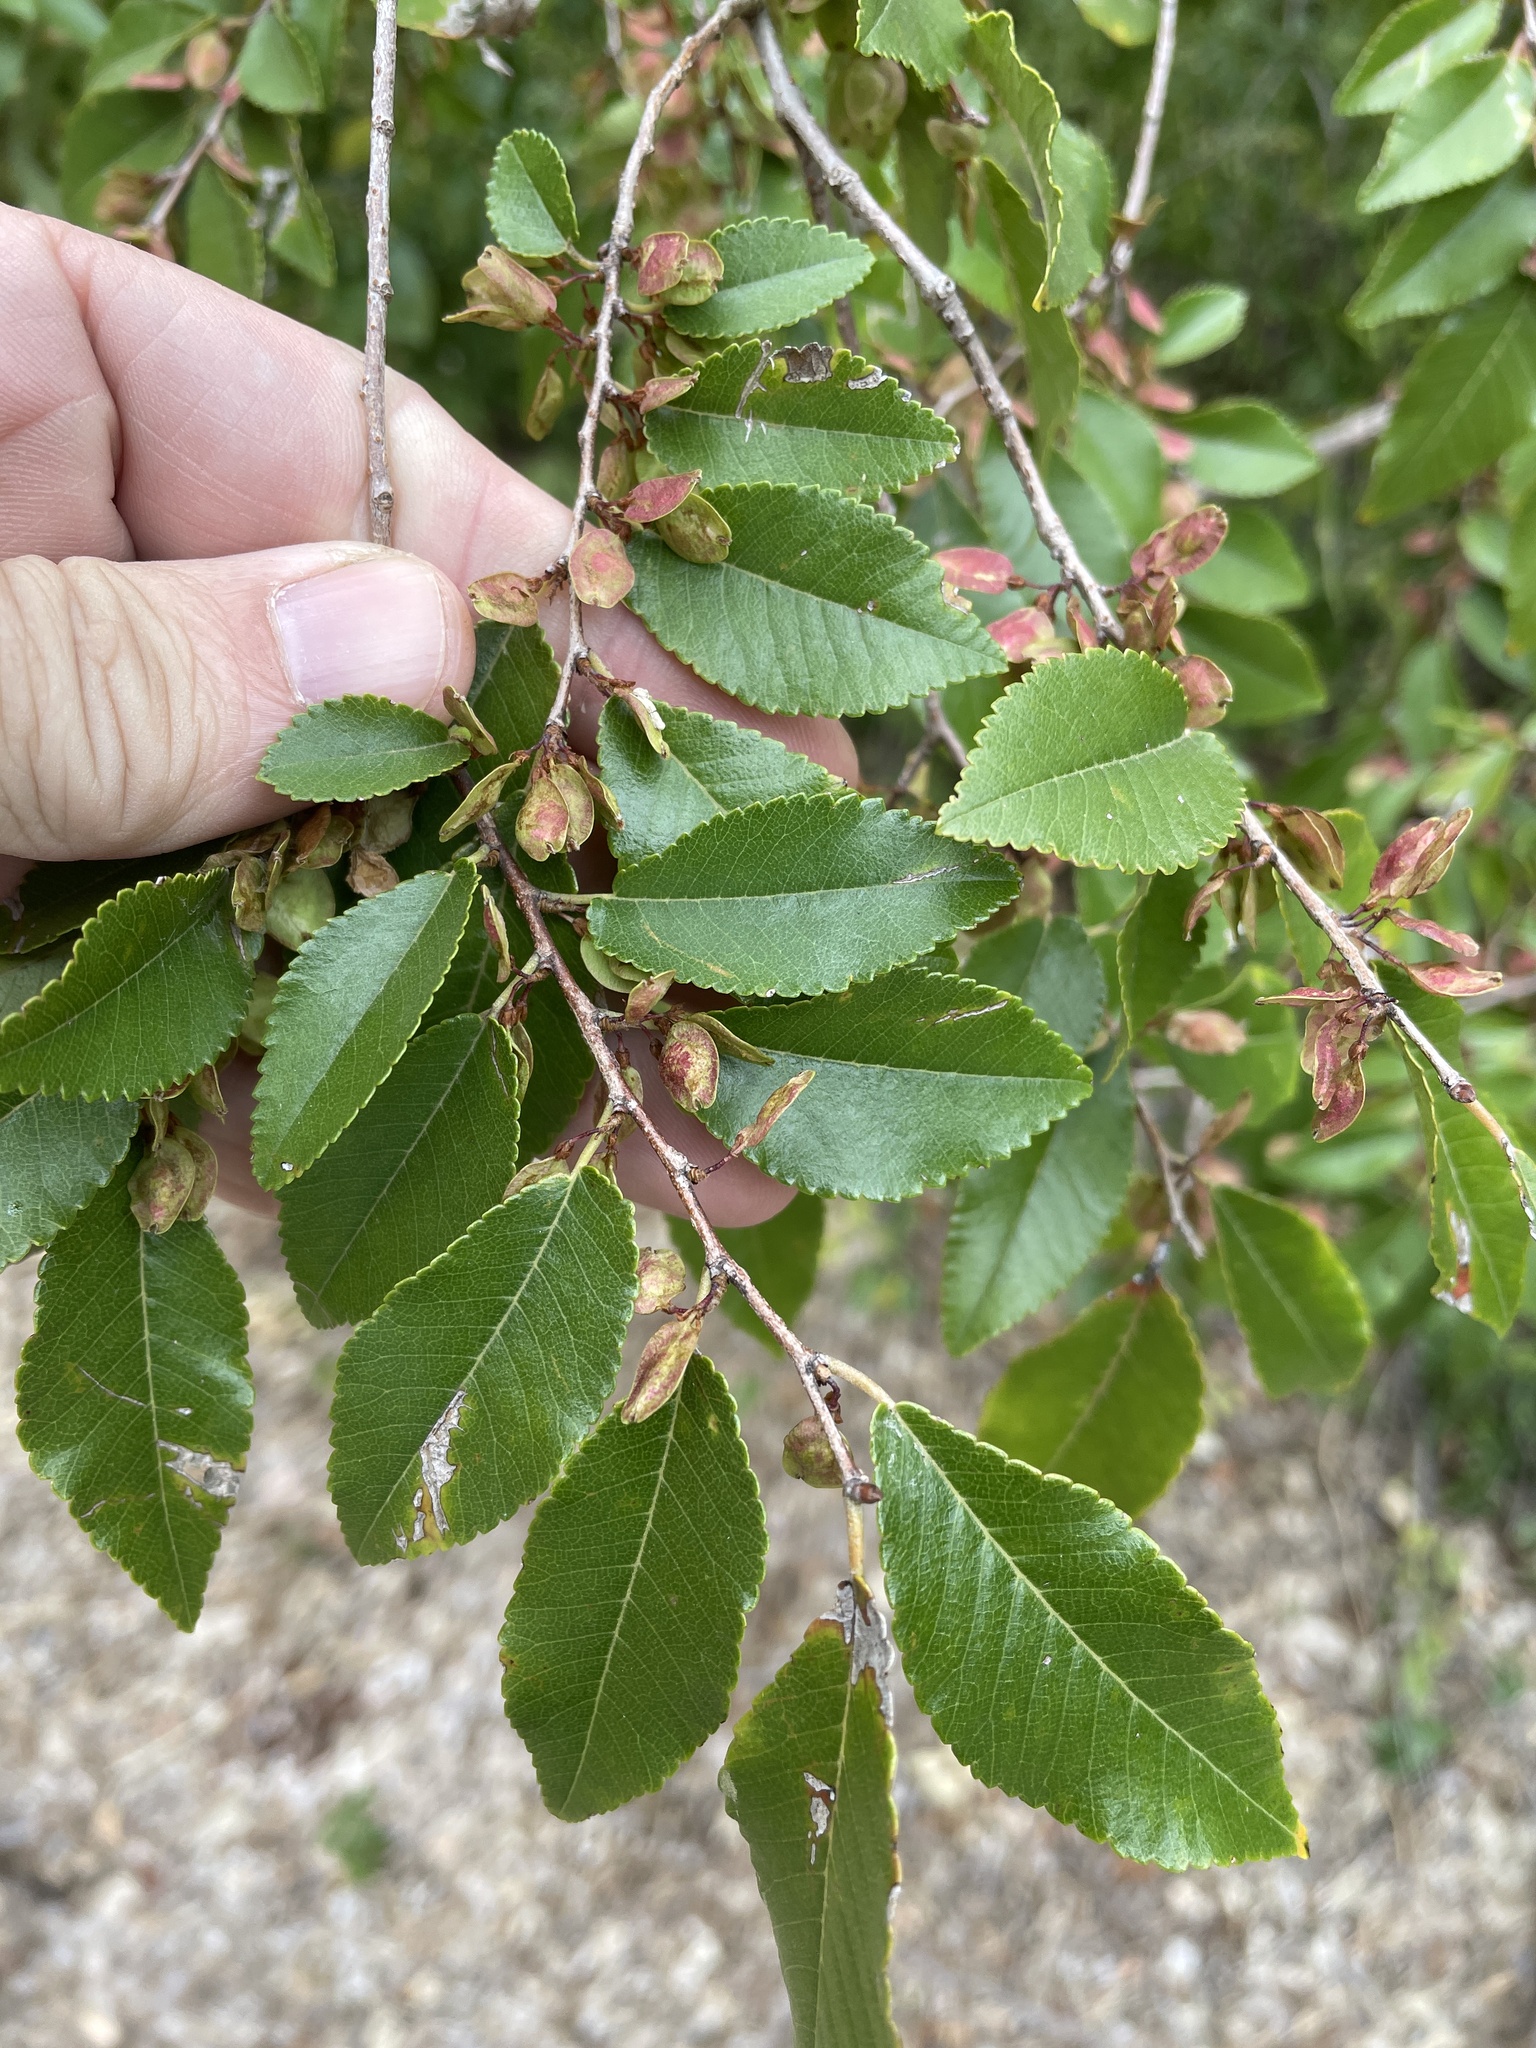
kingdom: Plantae
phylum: Tracheophyta
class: Magnoliopsida
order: Rosales
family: Ulmaceae
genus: Ulmus
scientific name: Ulmus parvifolia
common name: Chinese elm
